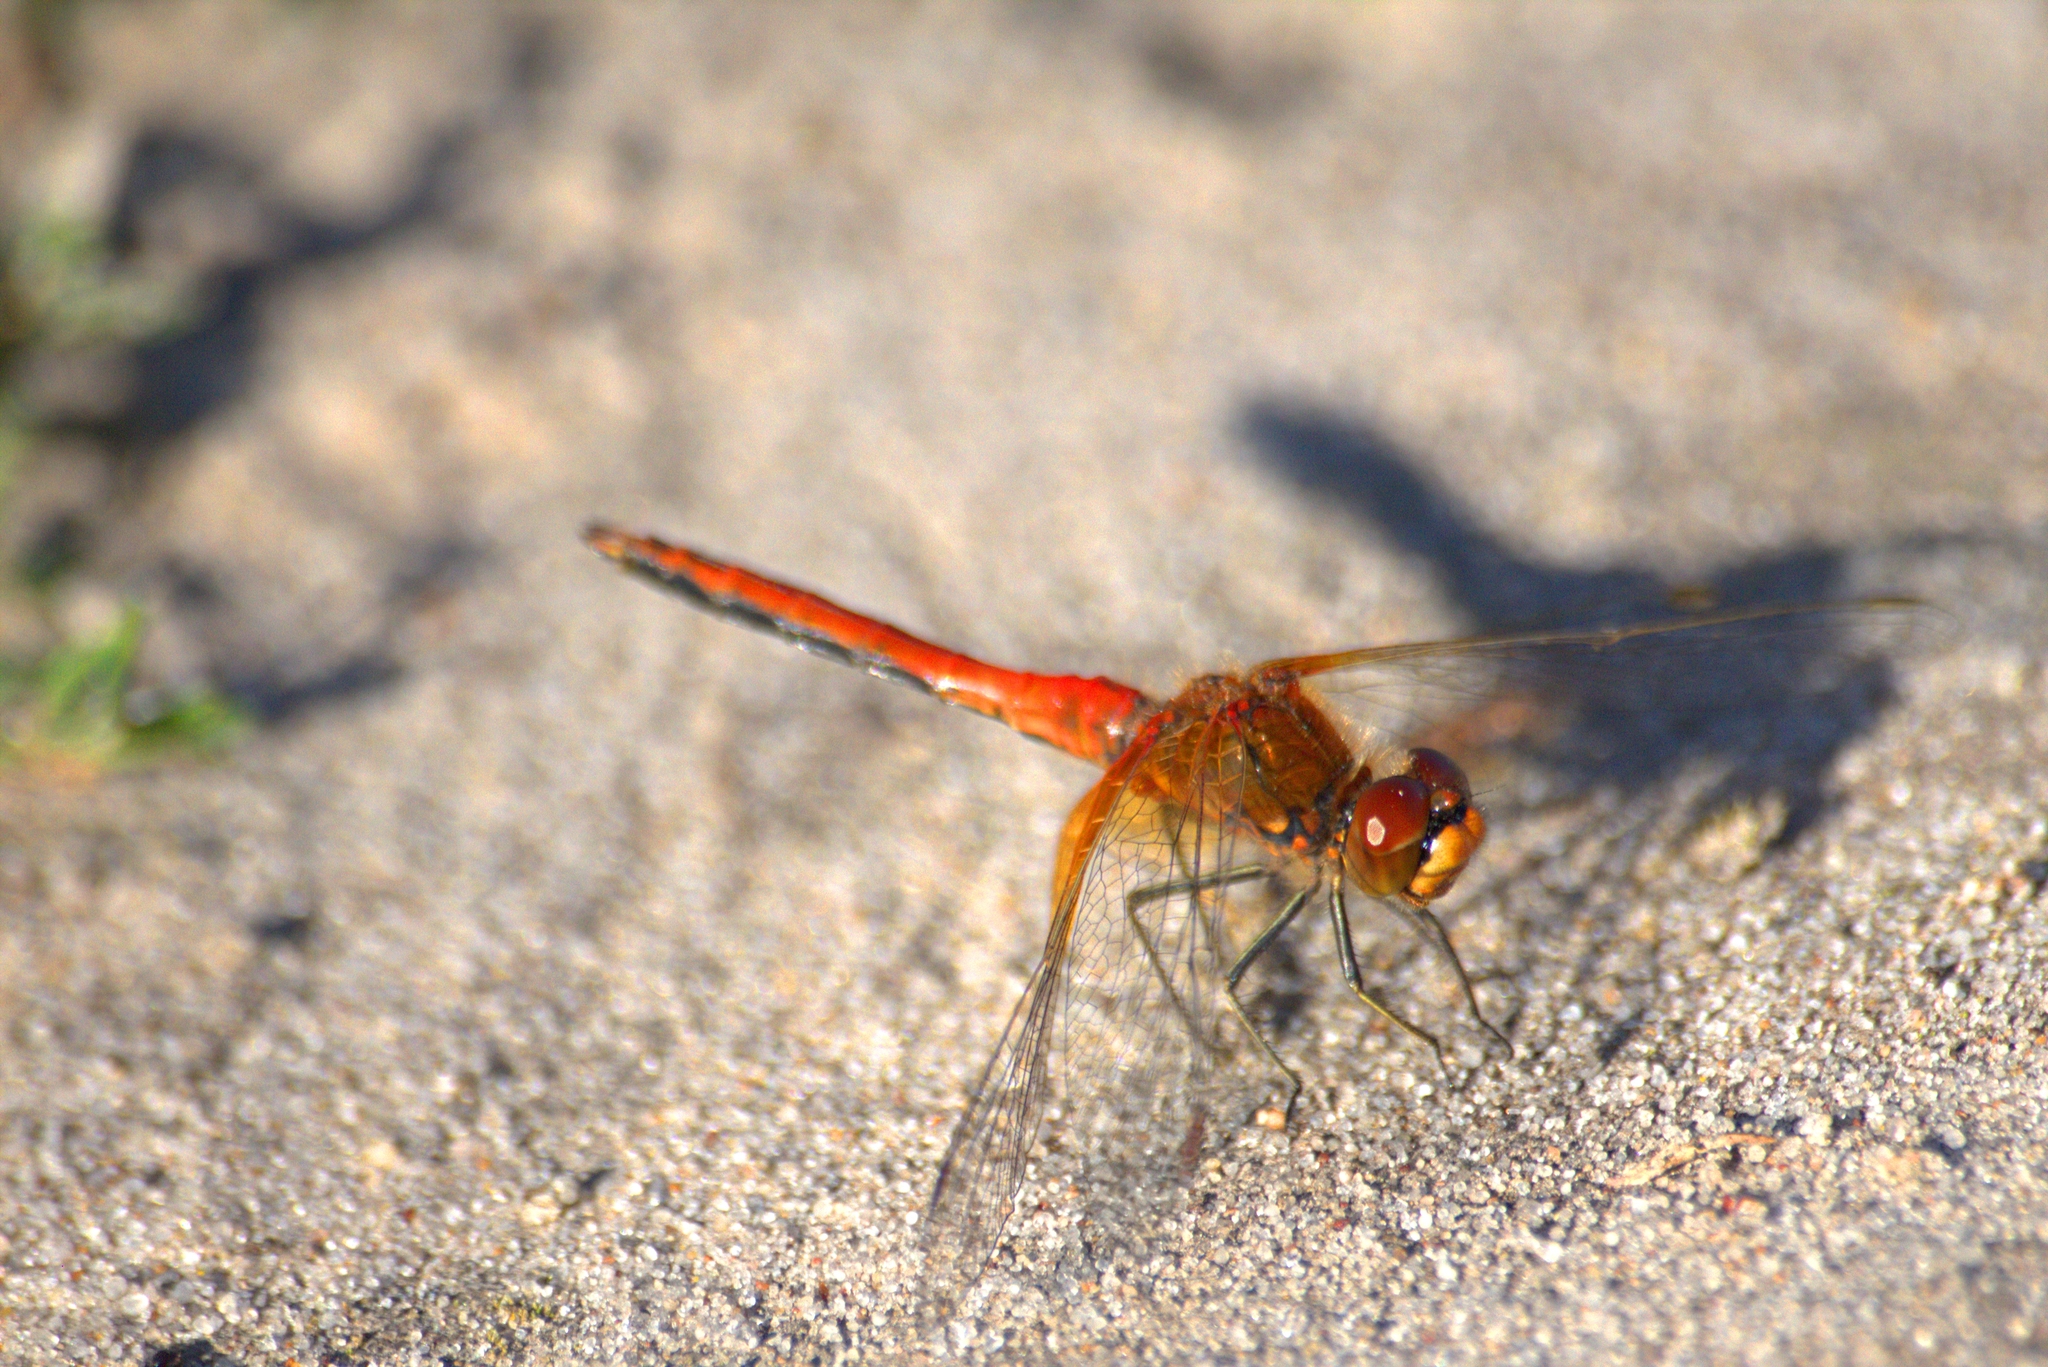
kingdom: Animalia
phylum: Arthropoda
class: Insecta
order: Odonata
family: Libellulidae
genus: Sympetrum
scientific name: Sympetrum flaveolum
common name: Yellow-winged darter
